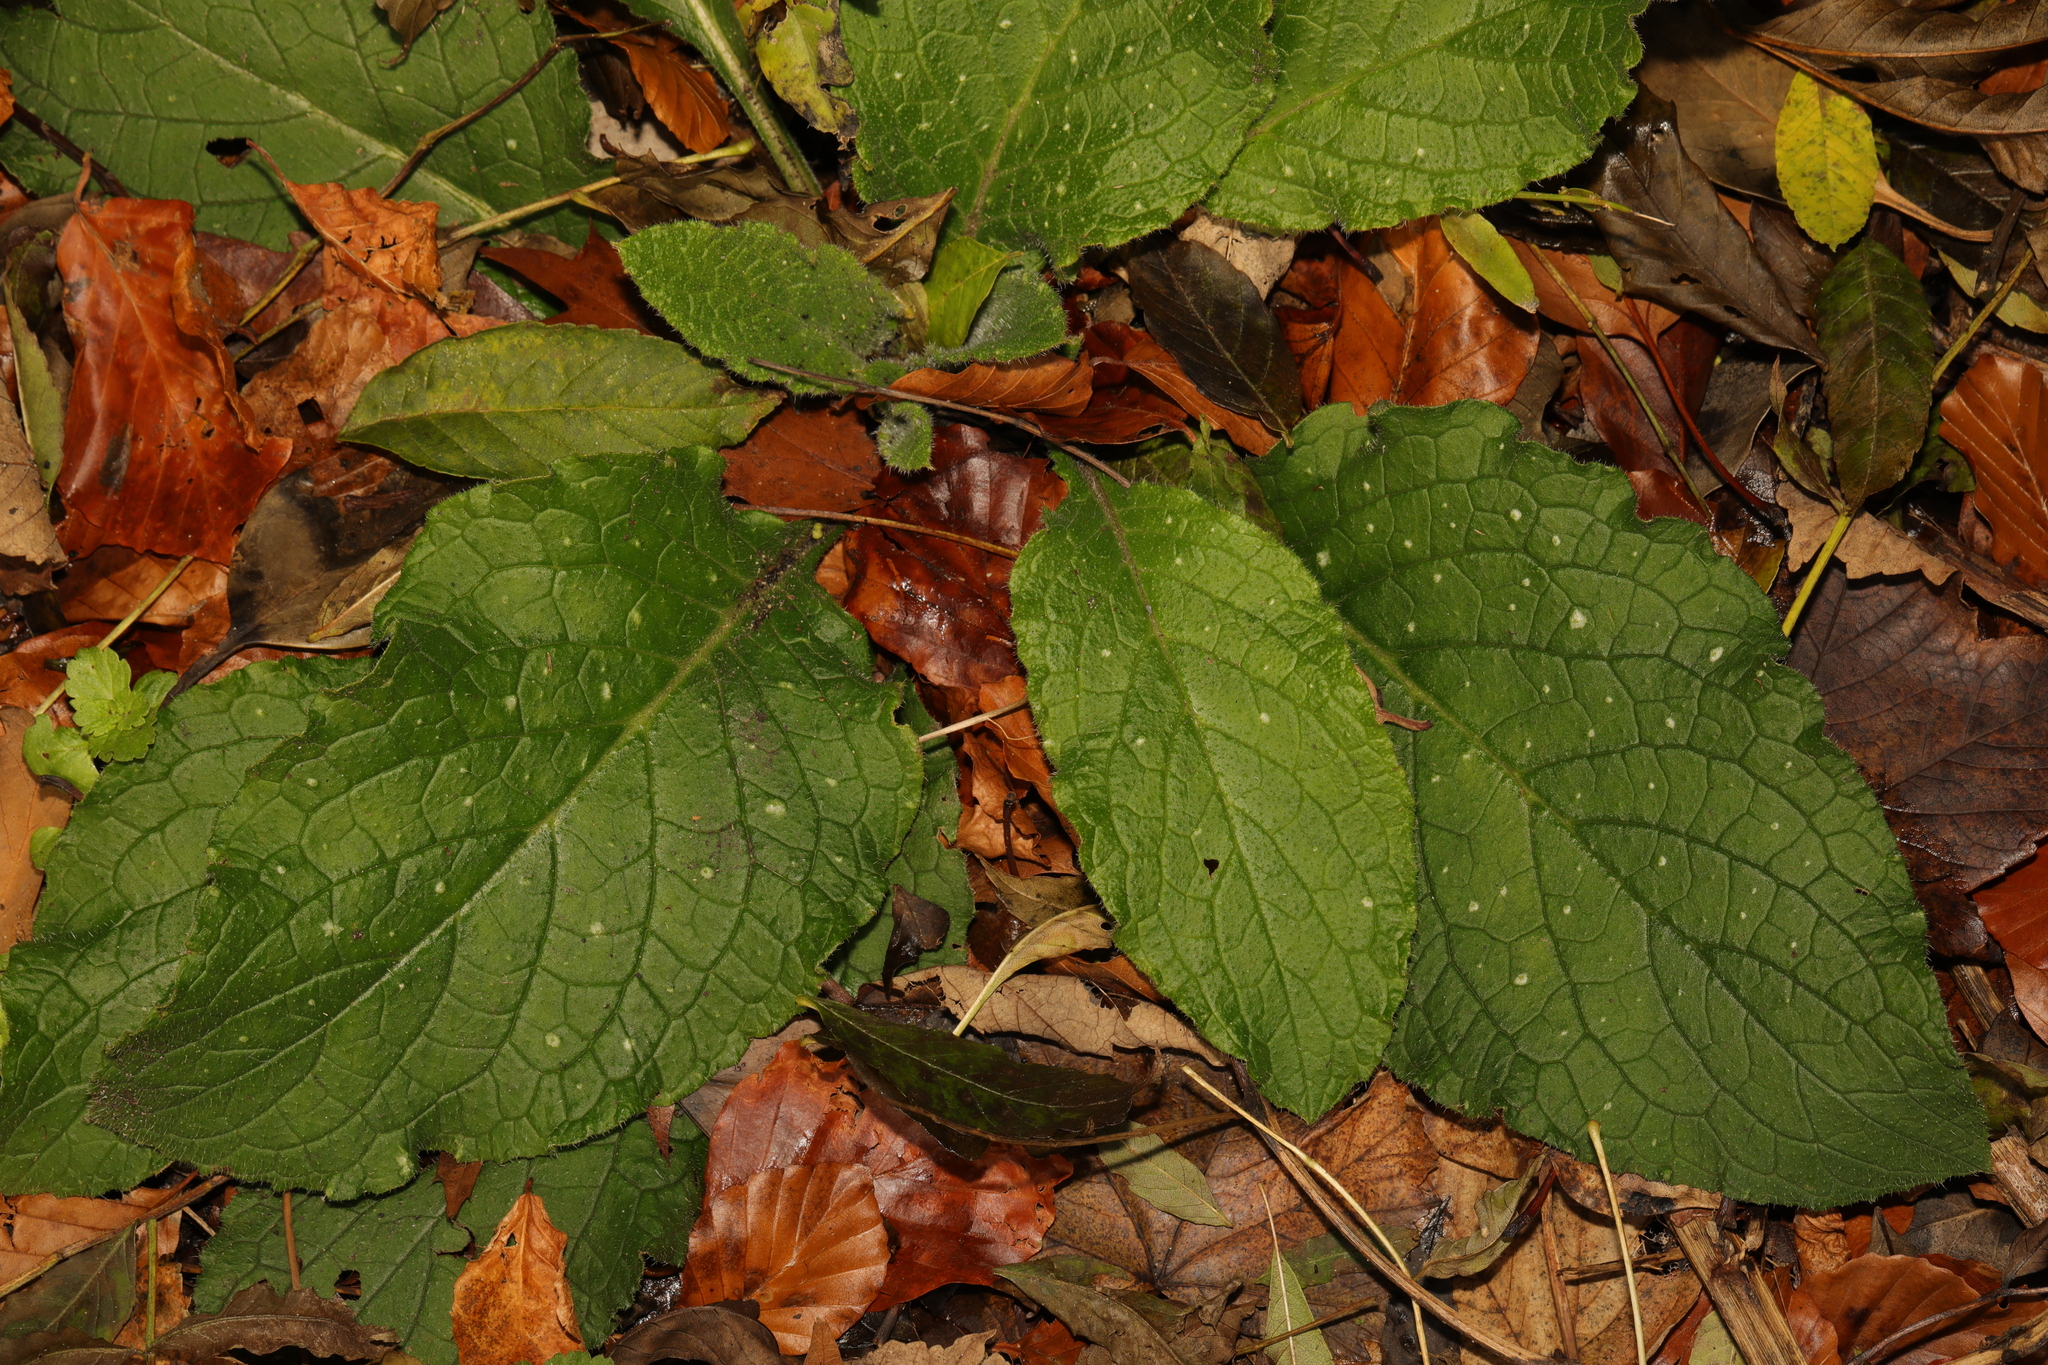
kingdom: Plantae
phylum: Tracheophyta
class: Magnoliopsida
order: Boraginales
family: Boraginaceae
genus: Pentaglottis
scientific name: Pentaglottis sempervirens
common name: Green alkanet
